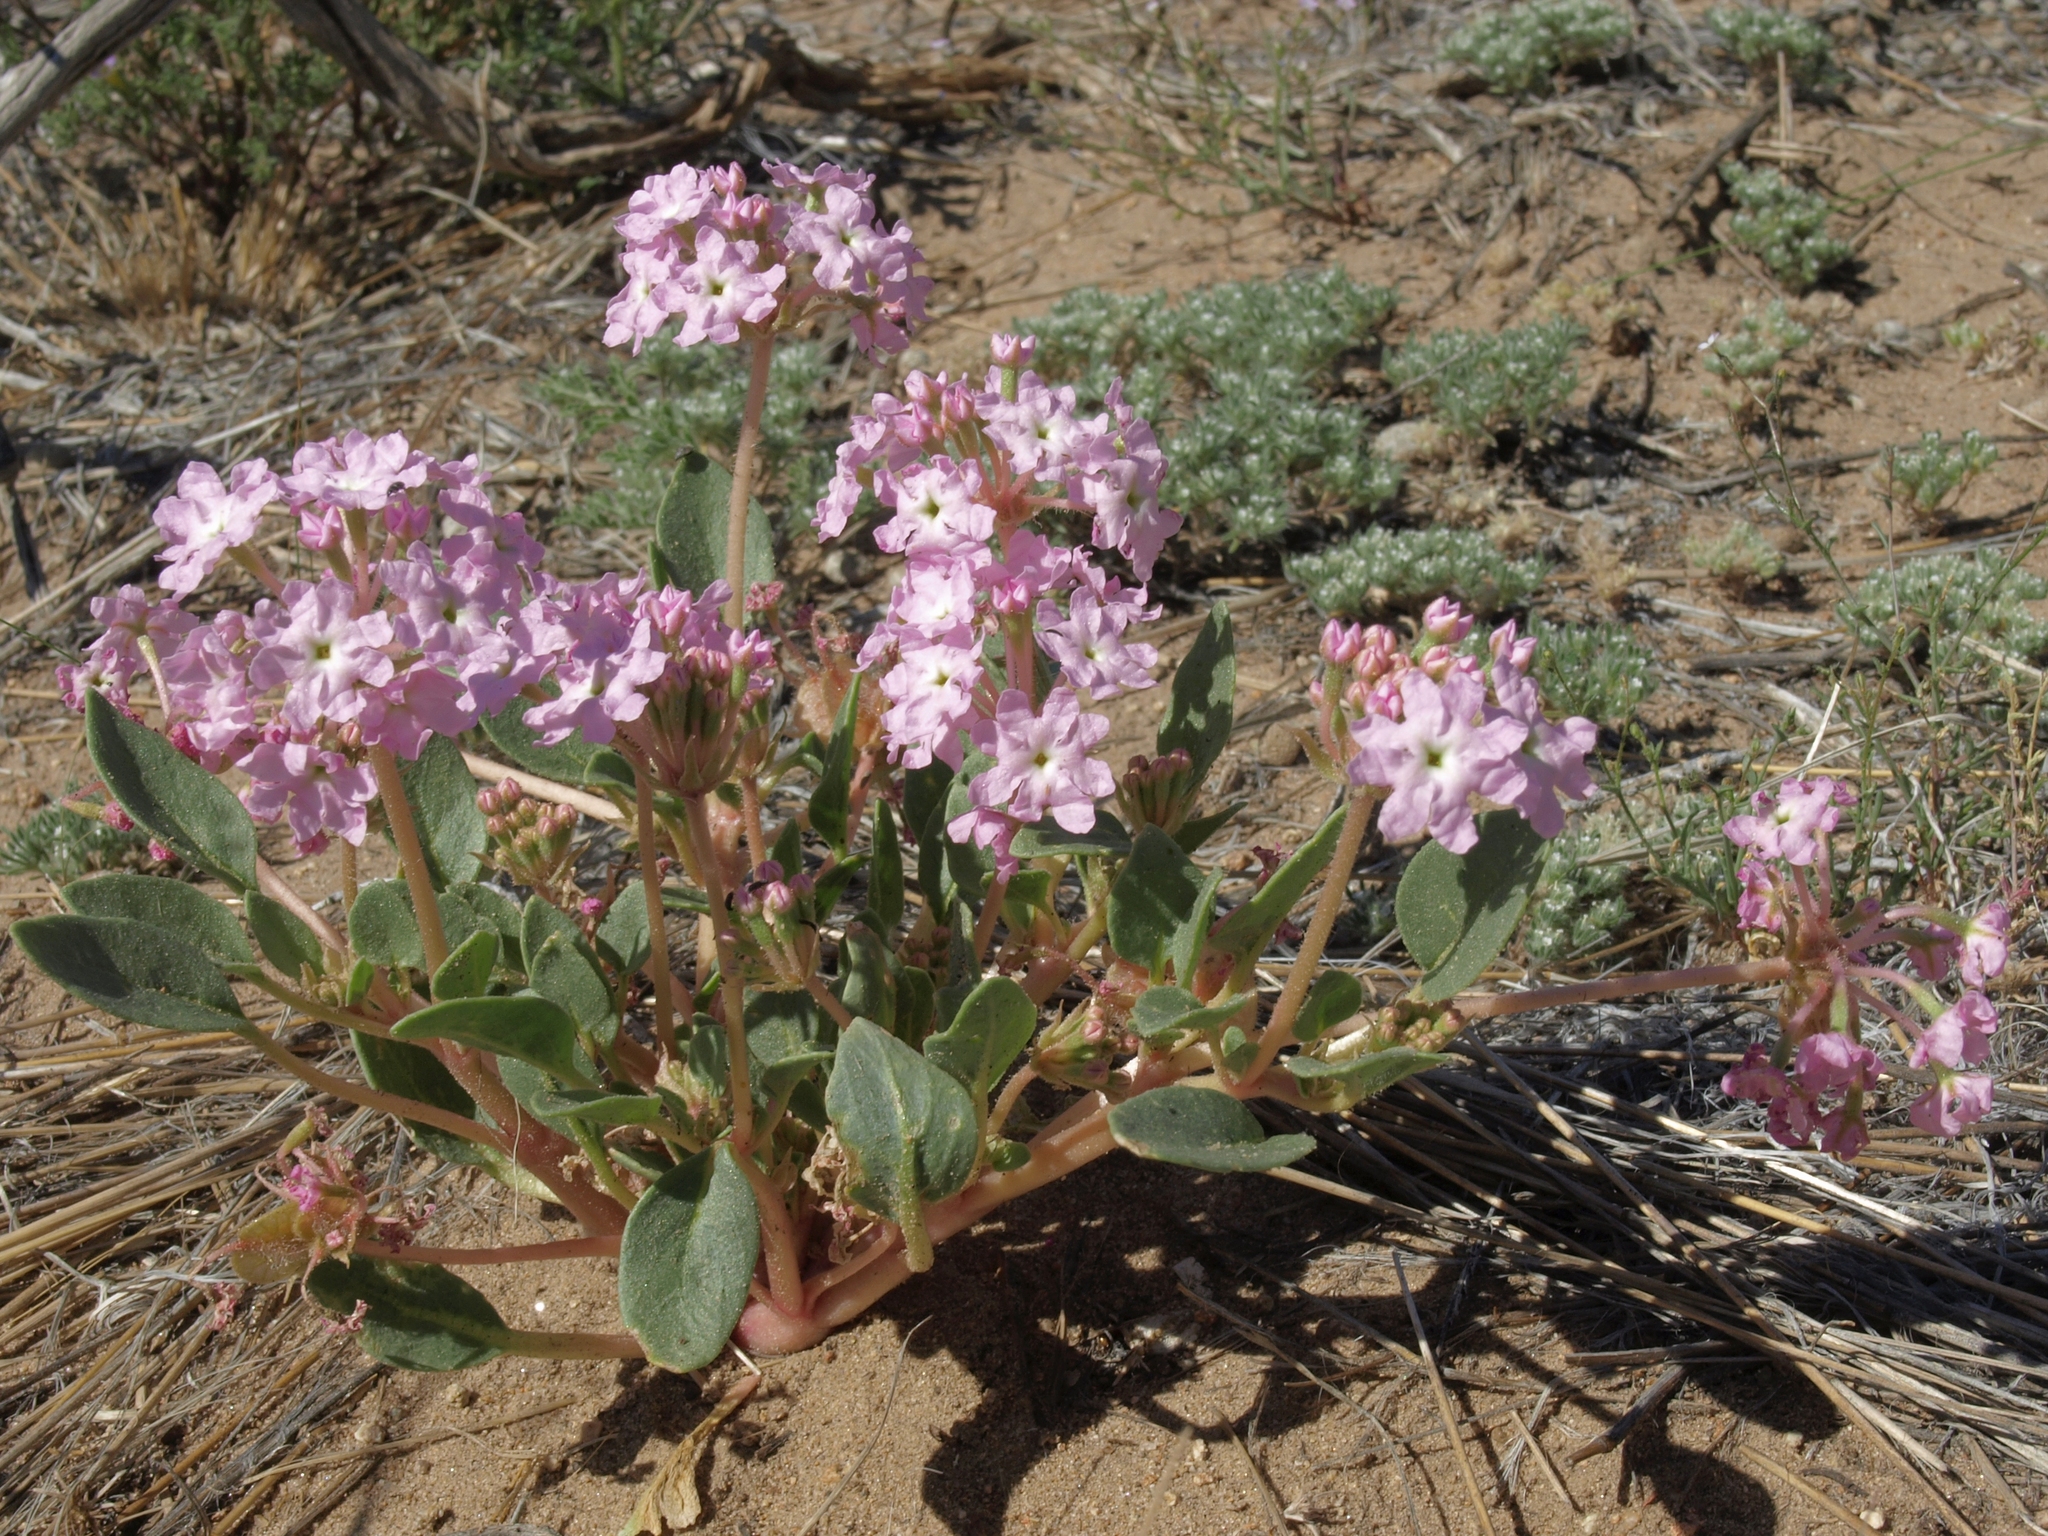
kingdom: Plantae
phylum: Tracheophyta
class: Magnoliopsida
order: Caryophyllales
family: Nyctaginaceae
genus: Tripterocalyx
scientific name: Tripterocalyx crux-maltae
